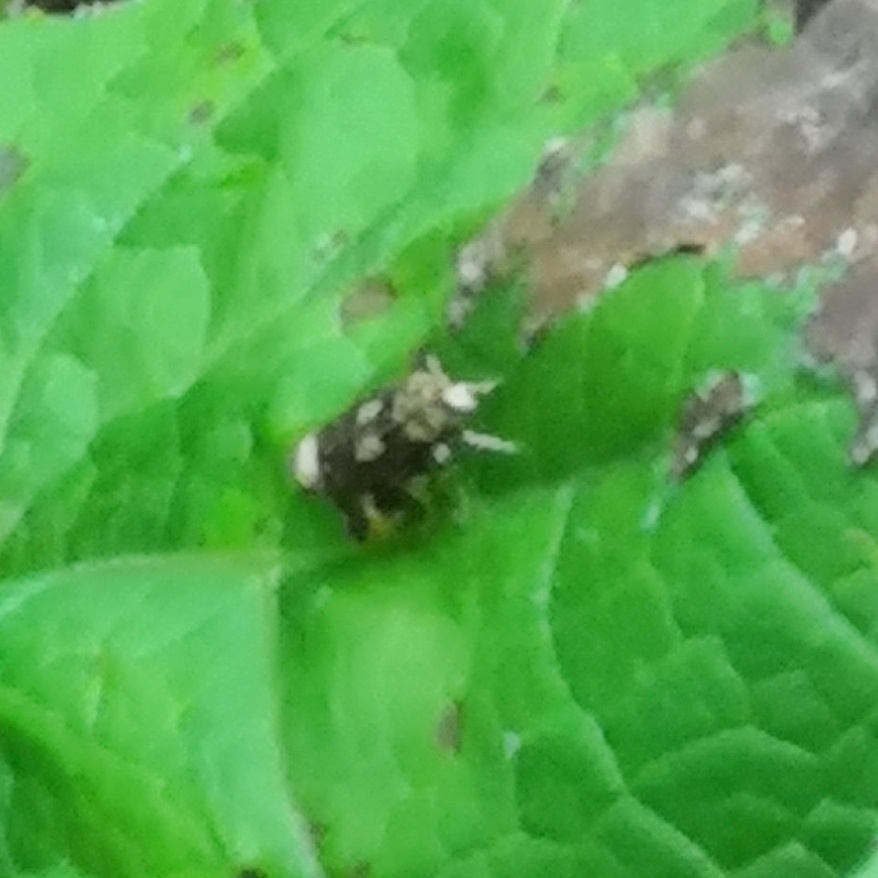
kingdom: Animalia
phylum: Arthropoda
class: Insecta
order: Coleoptera
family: Scarabaeidae
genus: Valgus
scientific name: Valgus hemipterus
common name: Bug flower chafer
